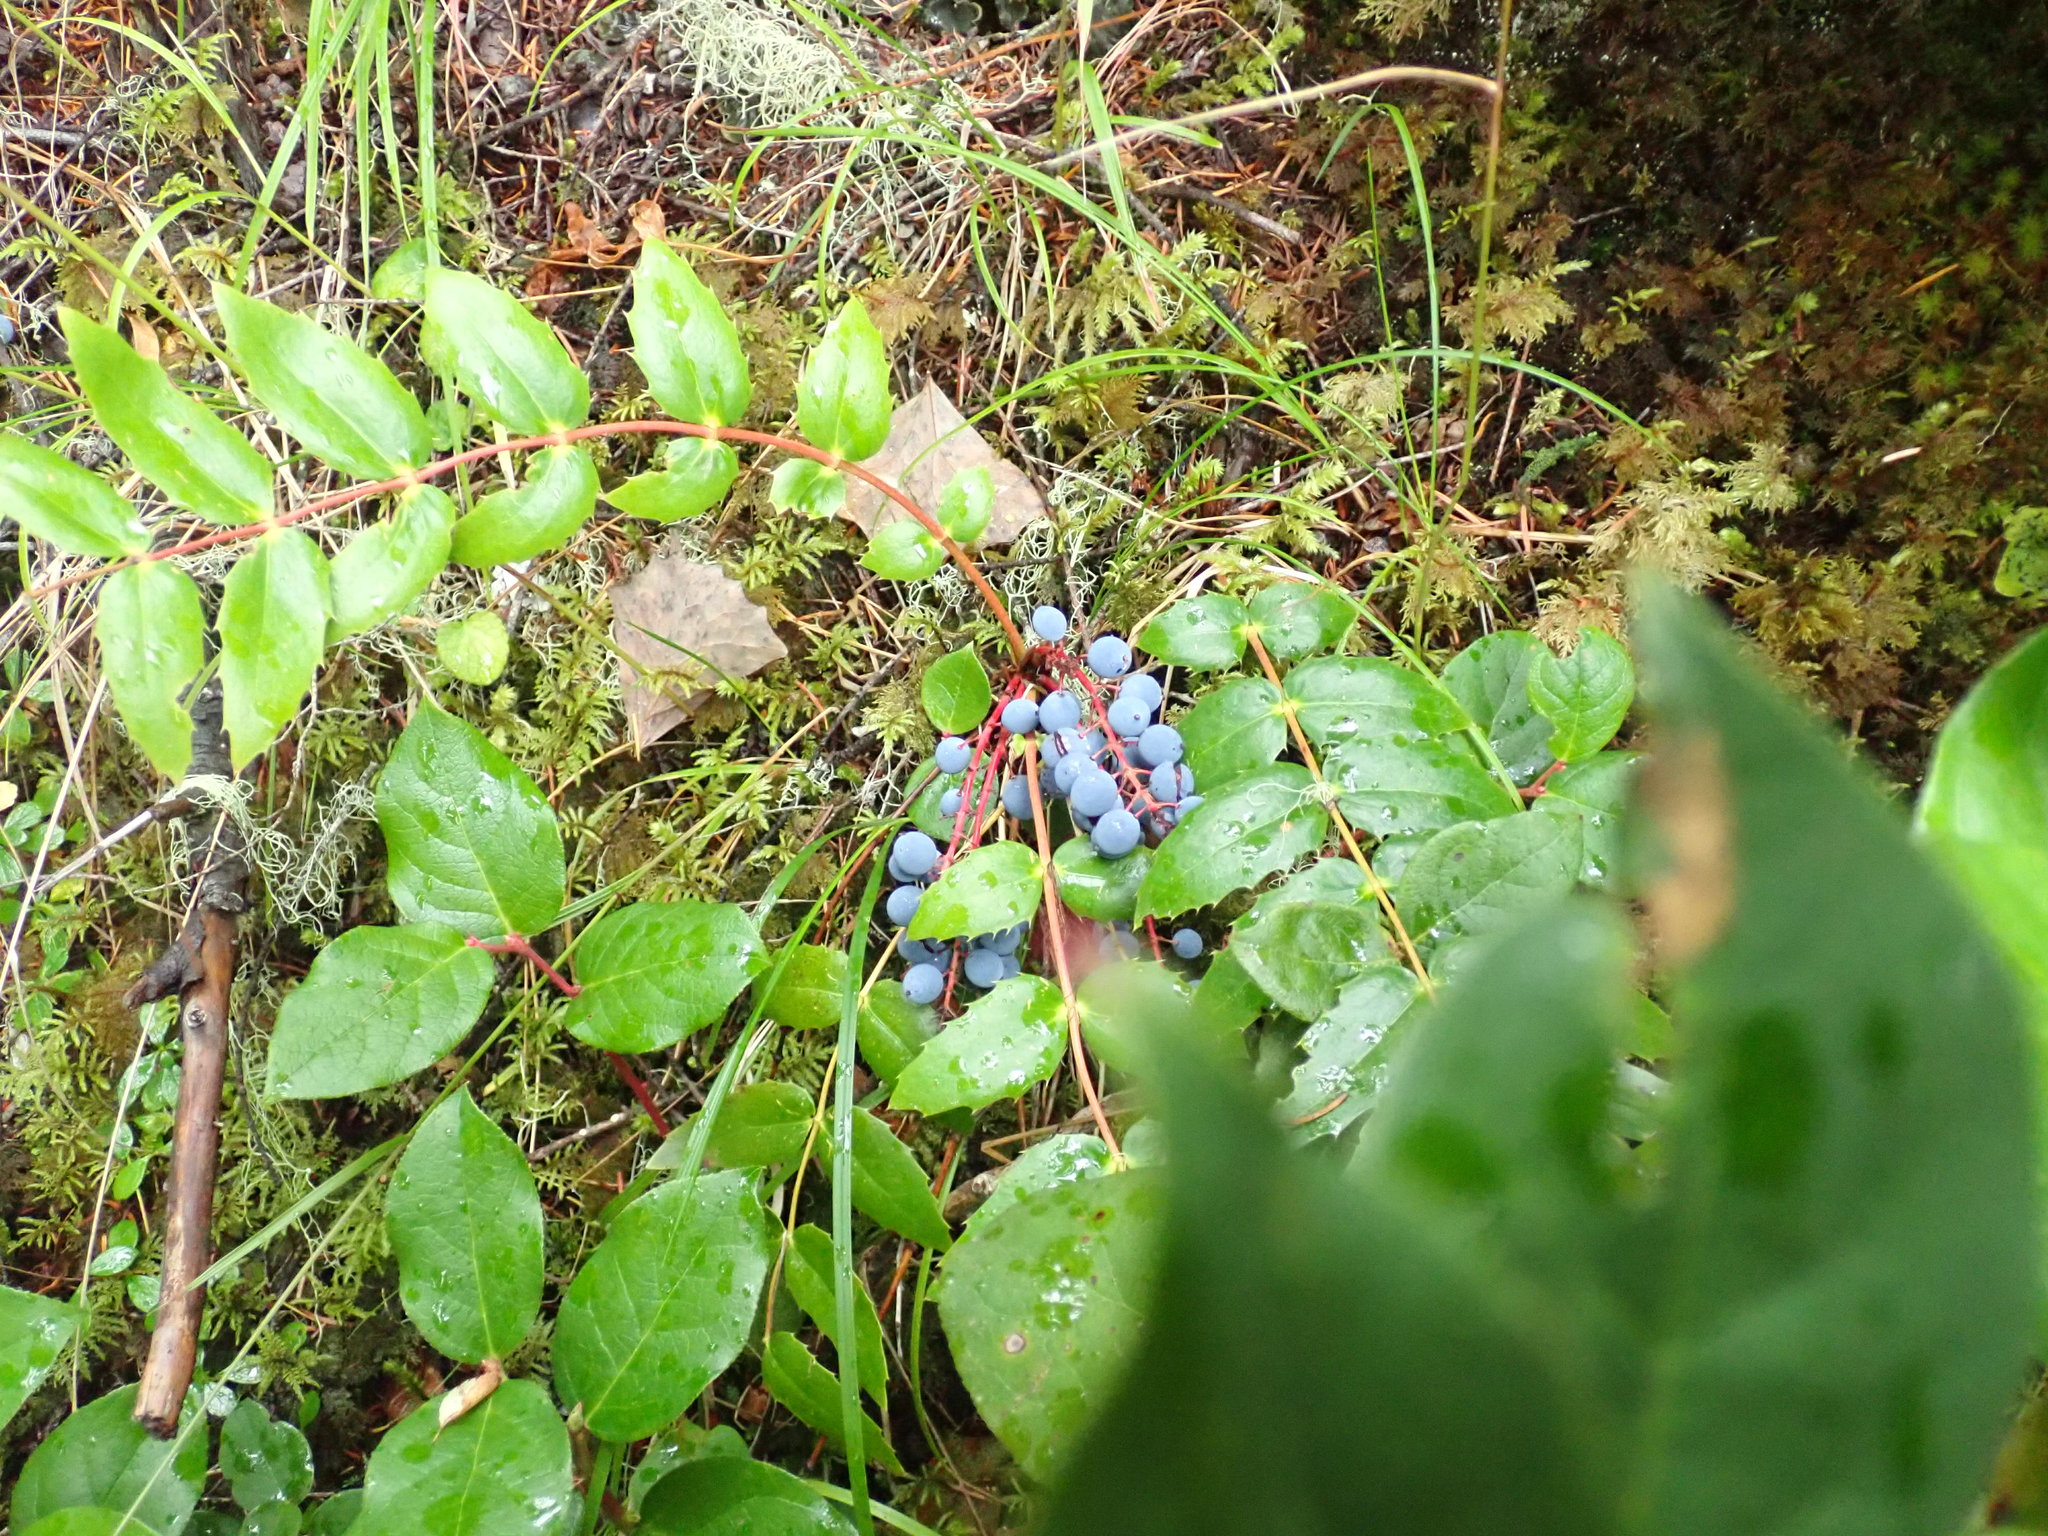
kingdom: Plantae
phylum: Tracheophyta
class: Magnoliopsida
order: Ranunculales
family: Berberidaceae
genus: Mahonia
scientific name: Mahonia nervosa
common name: Cascade oregon-grape
